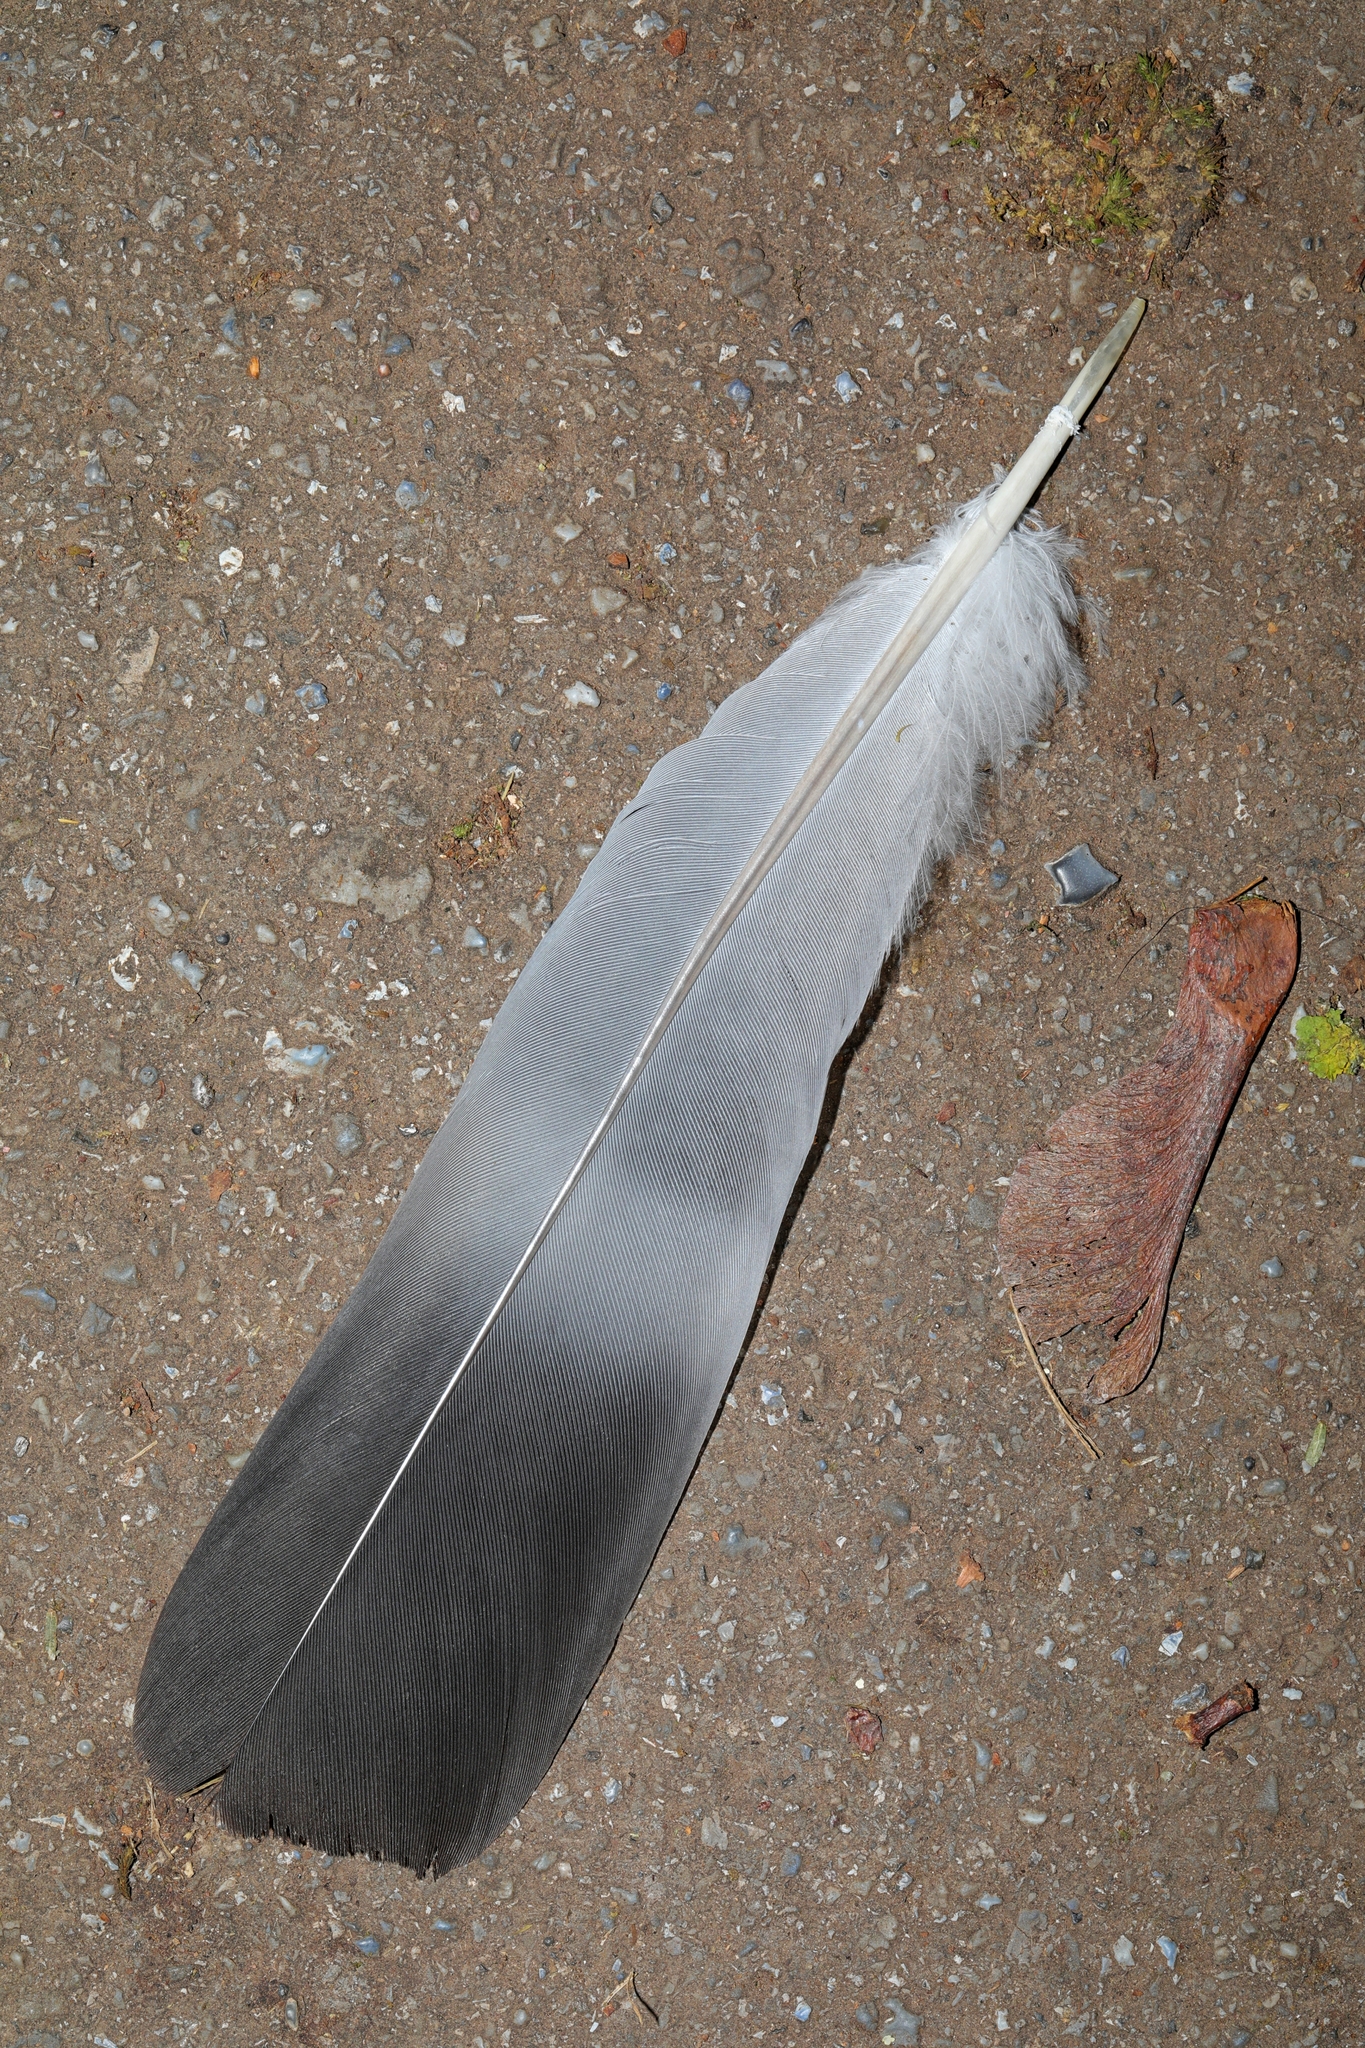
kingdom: Animalia
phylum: Chordata
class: Aves
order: Columbiformes
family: Columbidae
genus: Columba
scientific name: Columba palumbus
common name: Common wood pigeon
